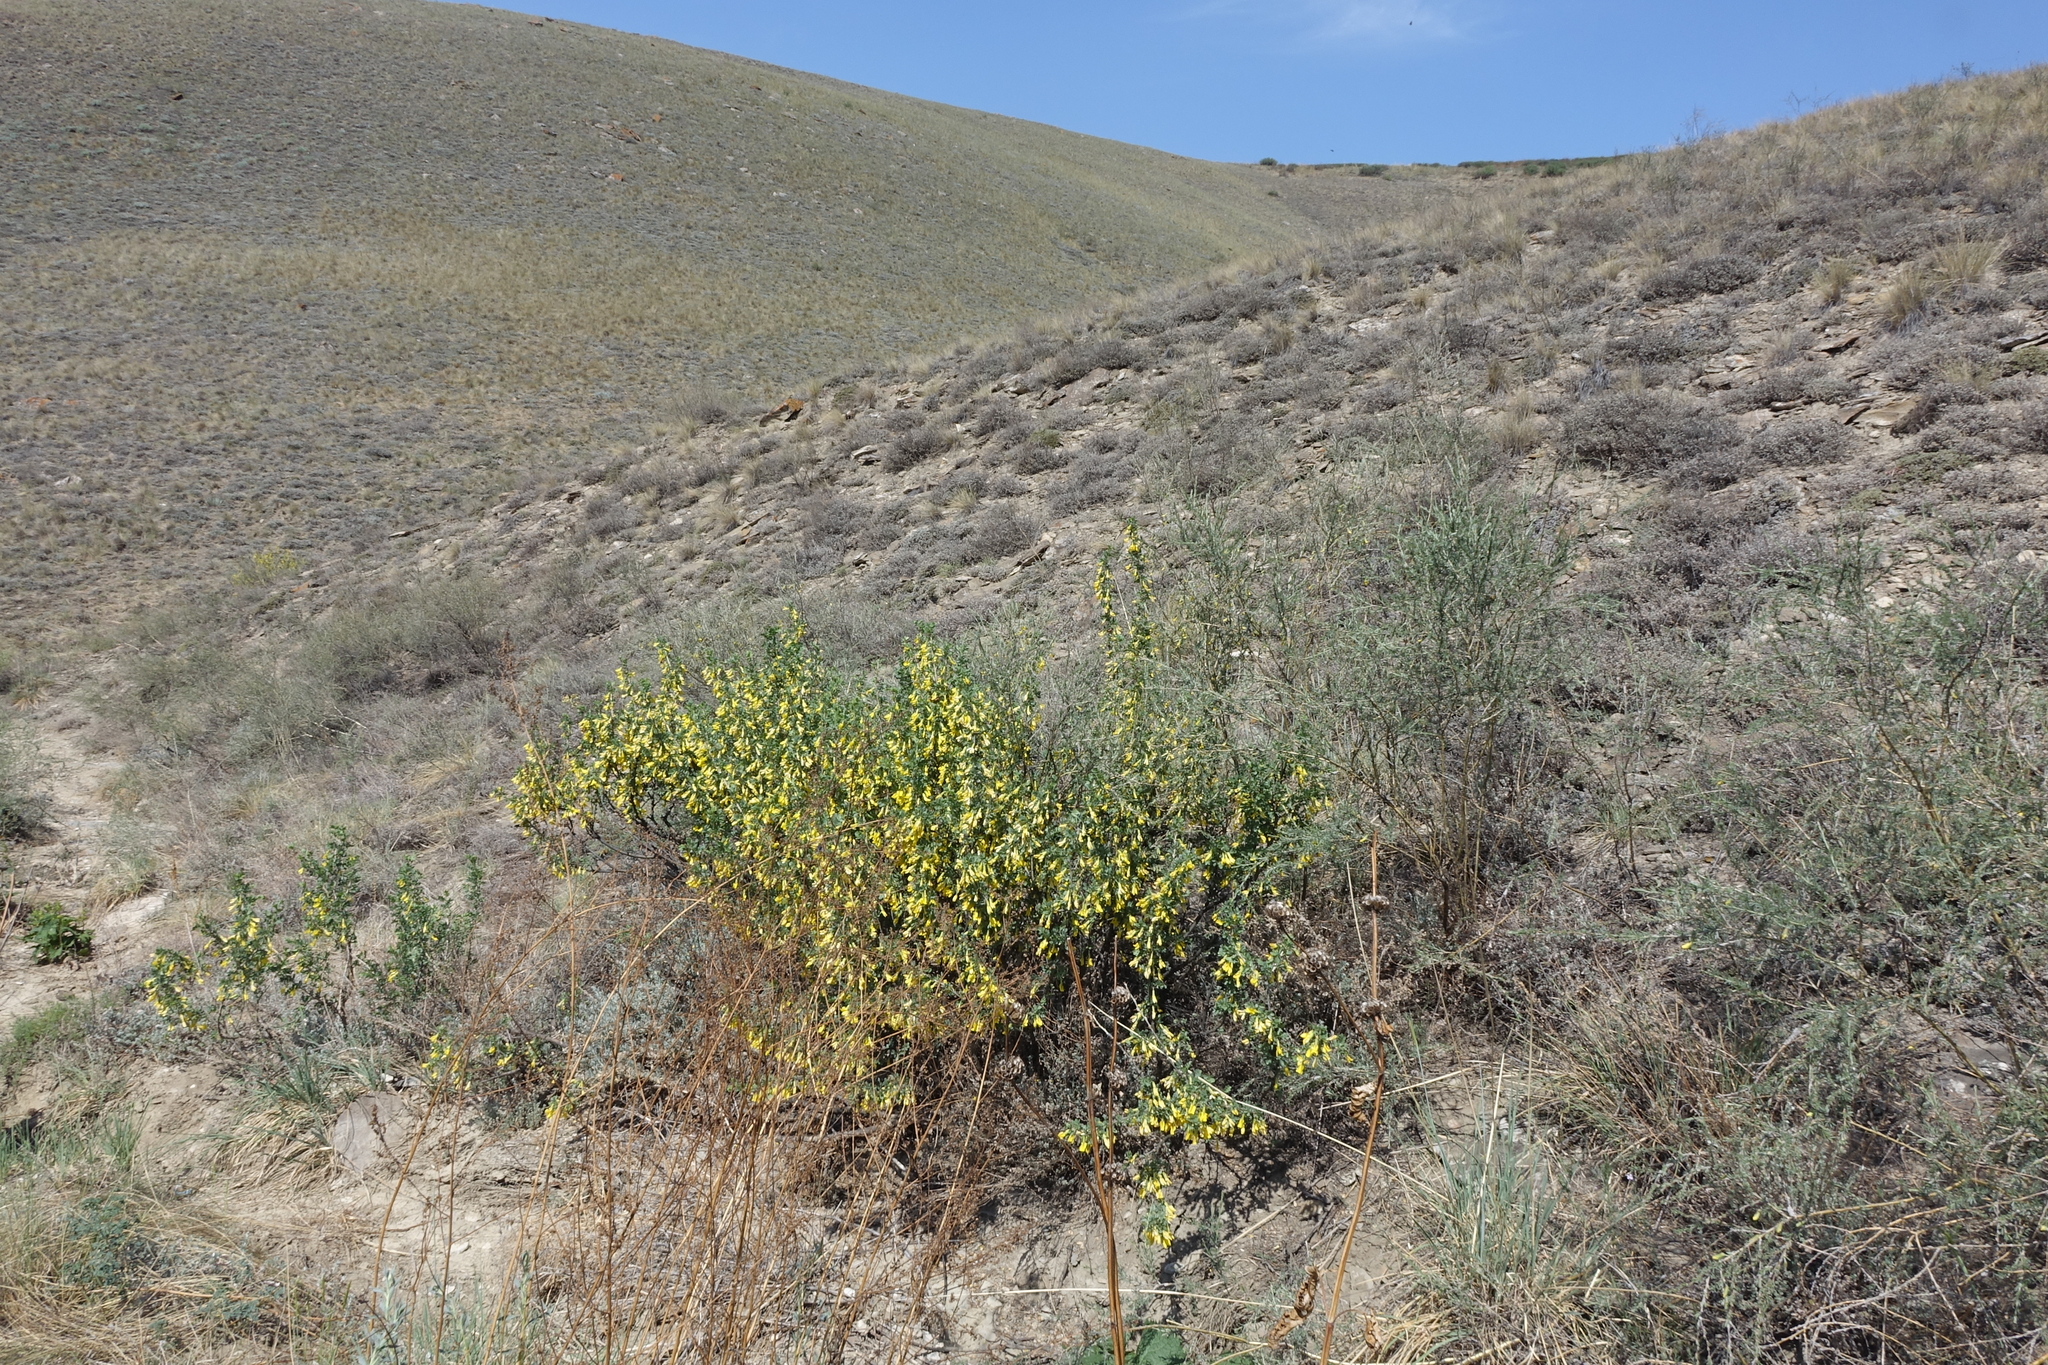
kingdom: Plantae
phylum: Tracheophyta
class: Magnoliopsida
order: Fabales
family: Fabaceae
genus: Caragana
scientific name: Caragana bungei
